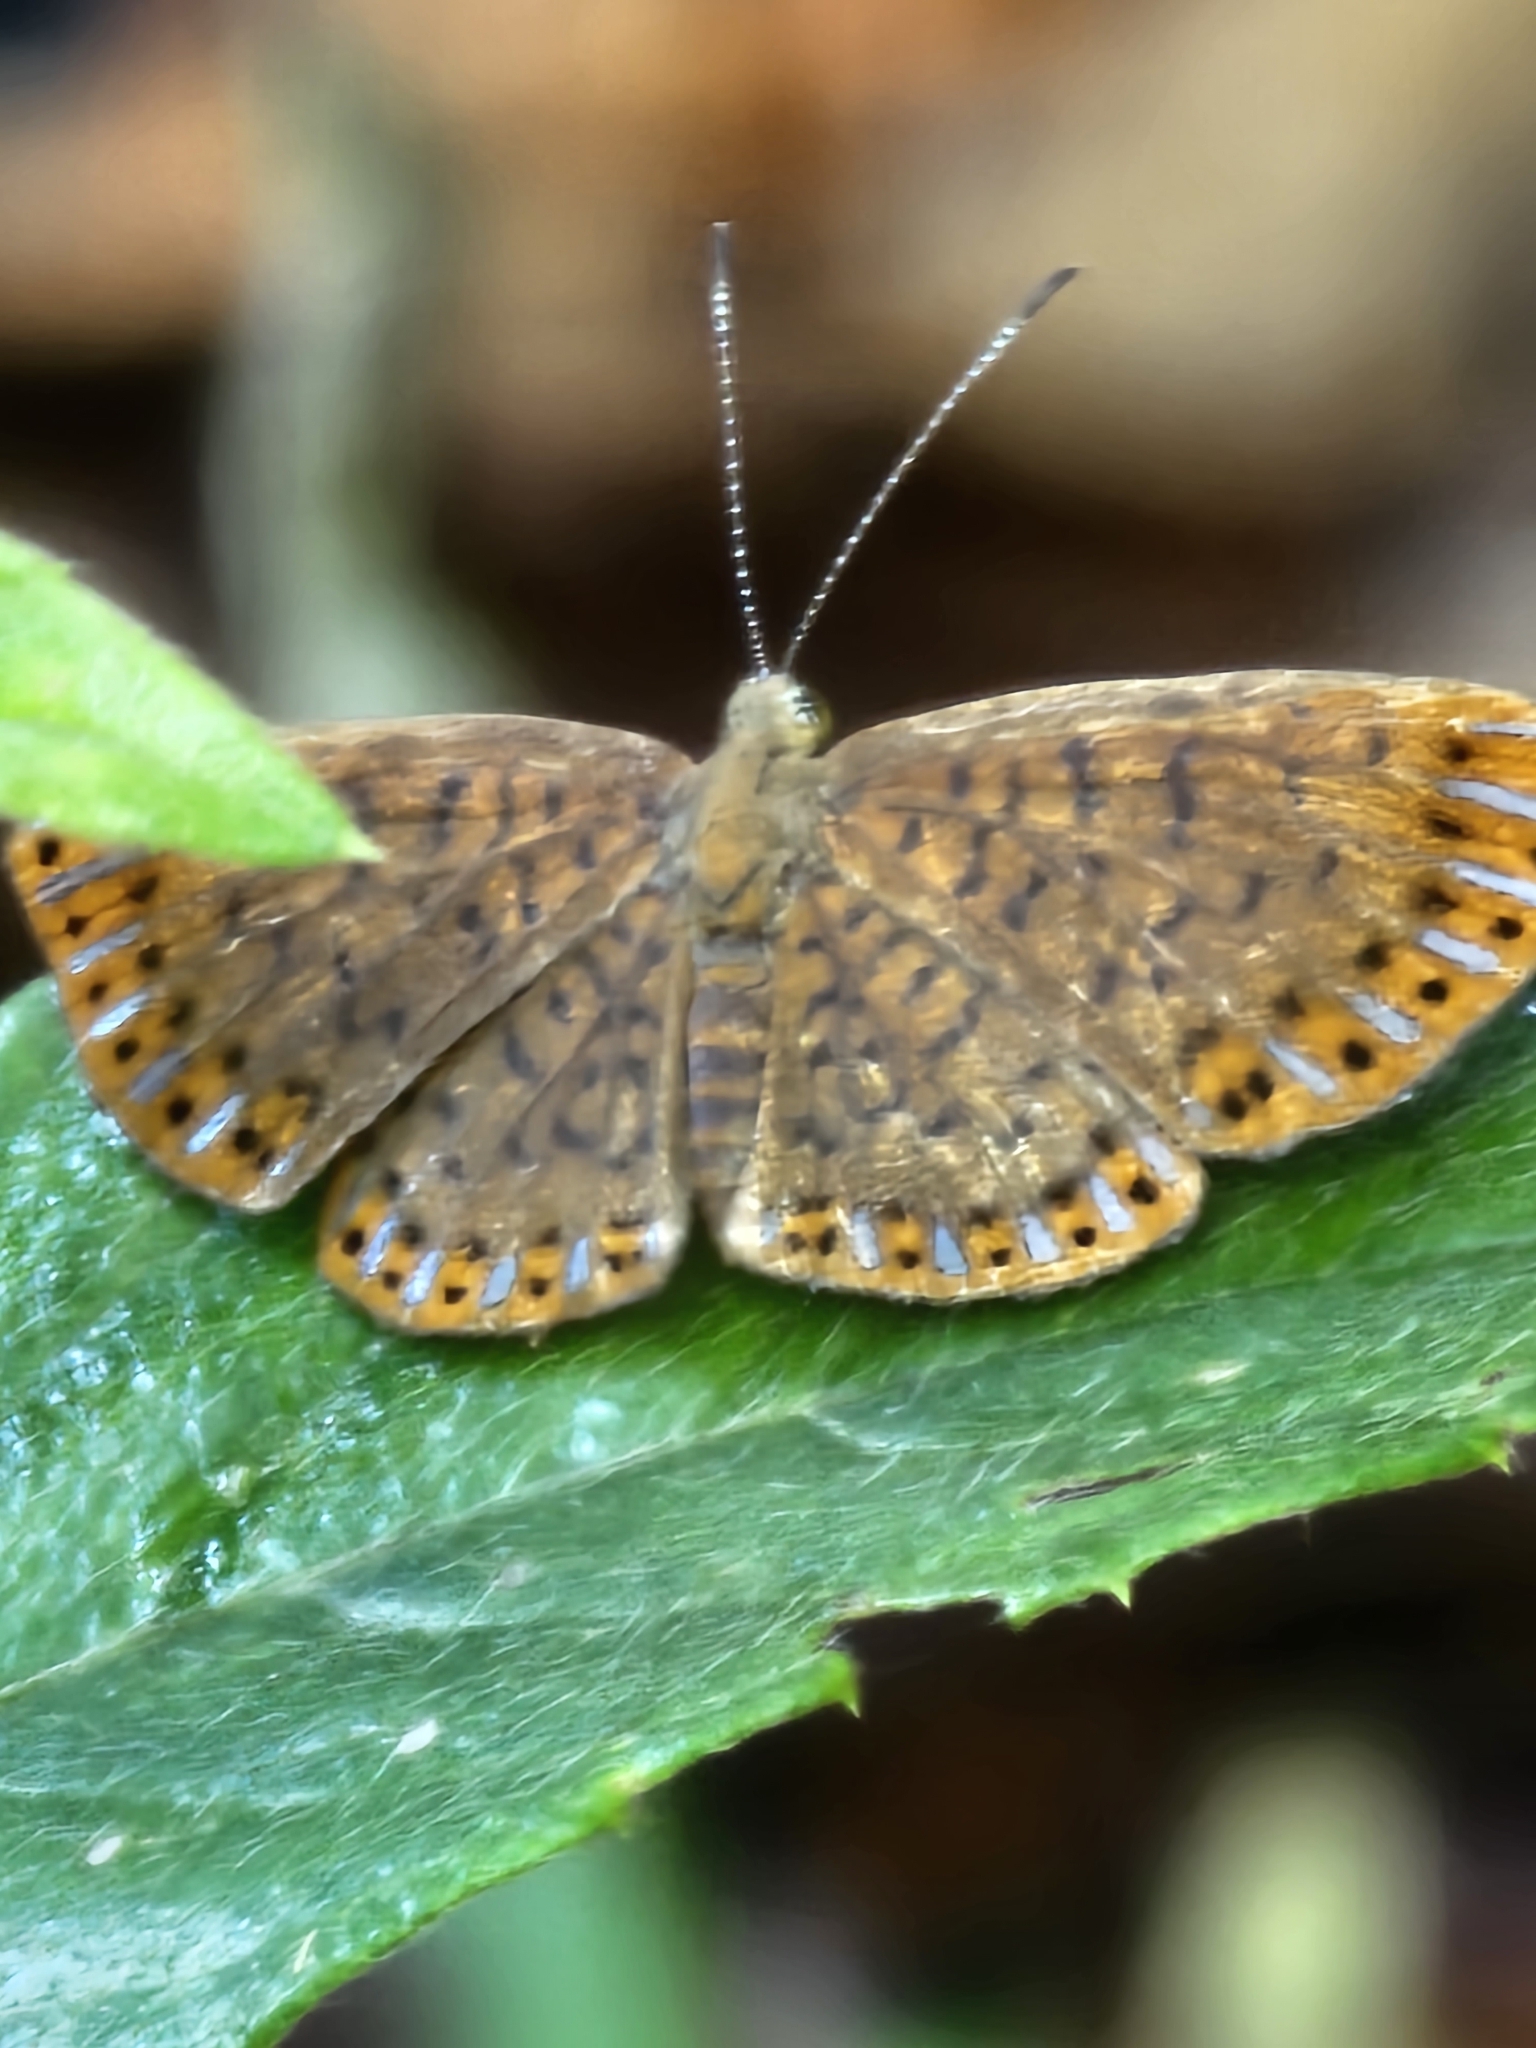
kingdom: Animalia
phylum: Arthropoda
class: Insecta
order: Lepidoptera
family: Riodinidae
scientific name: Riodinidae
